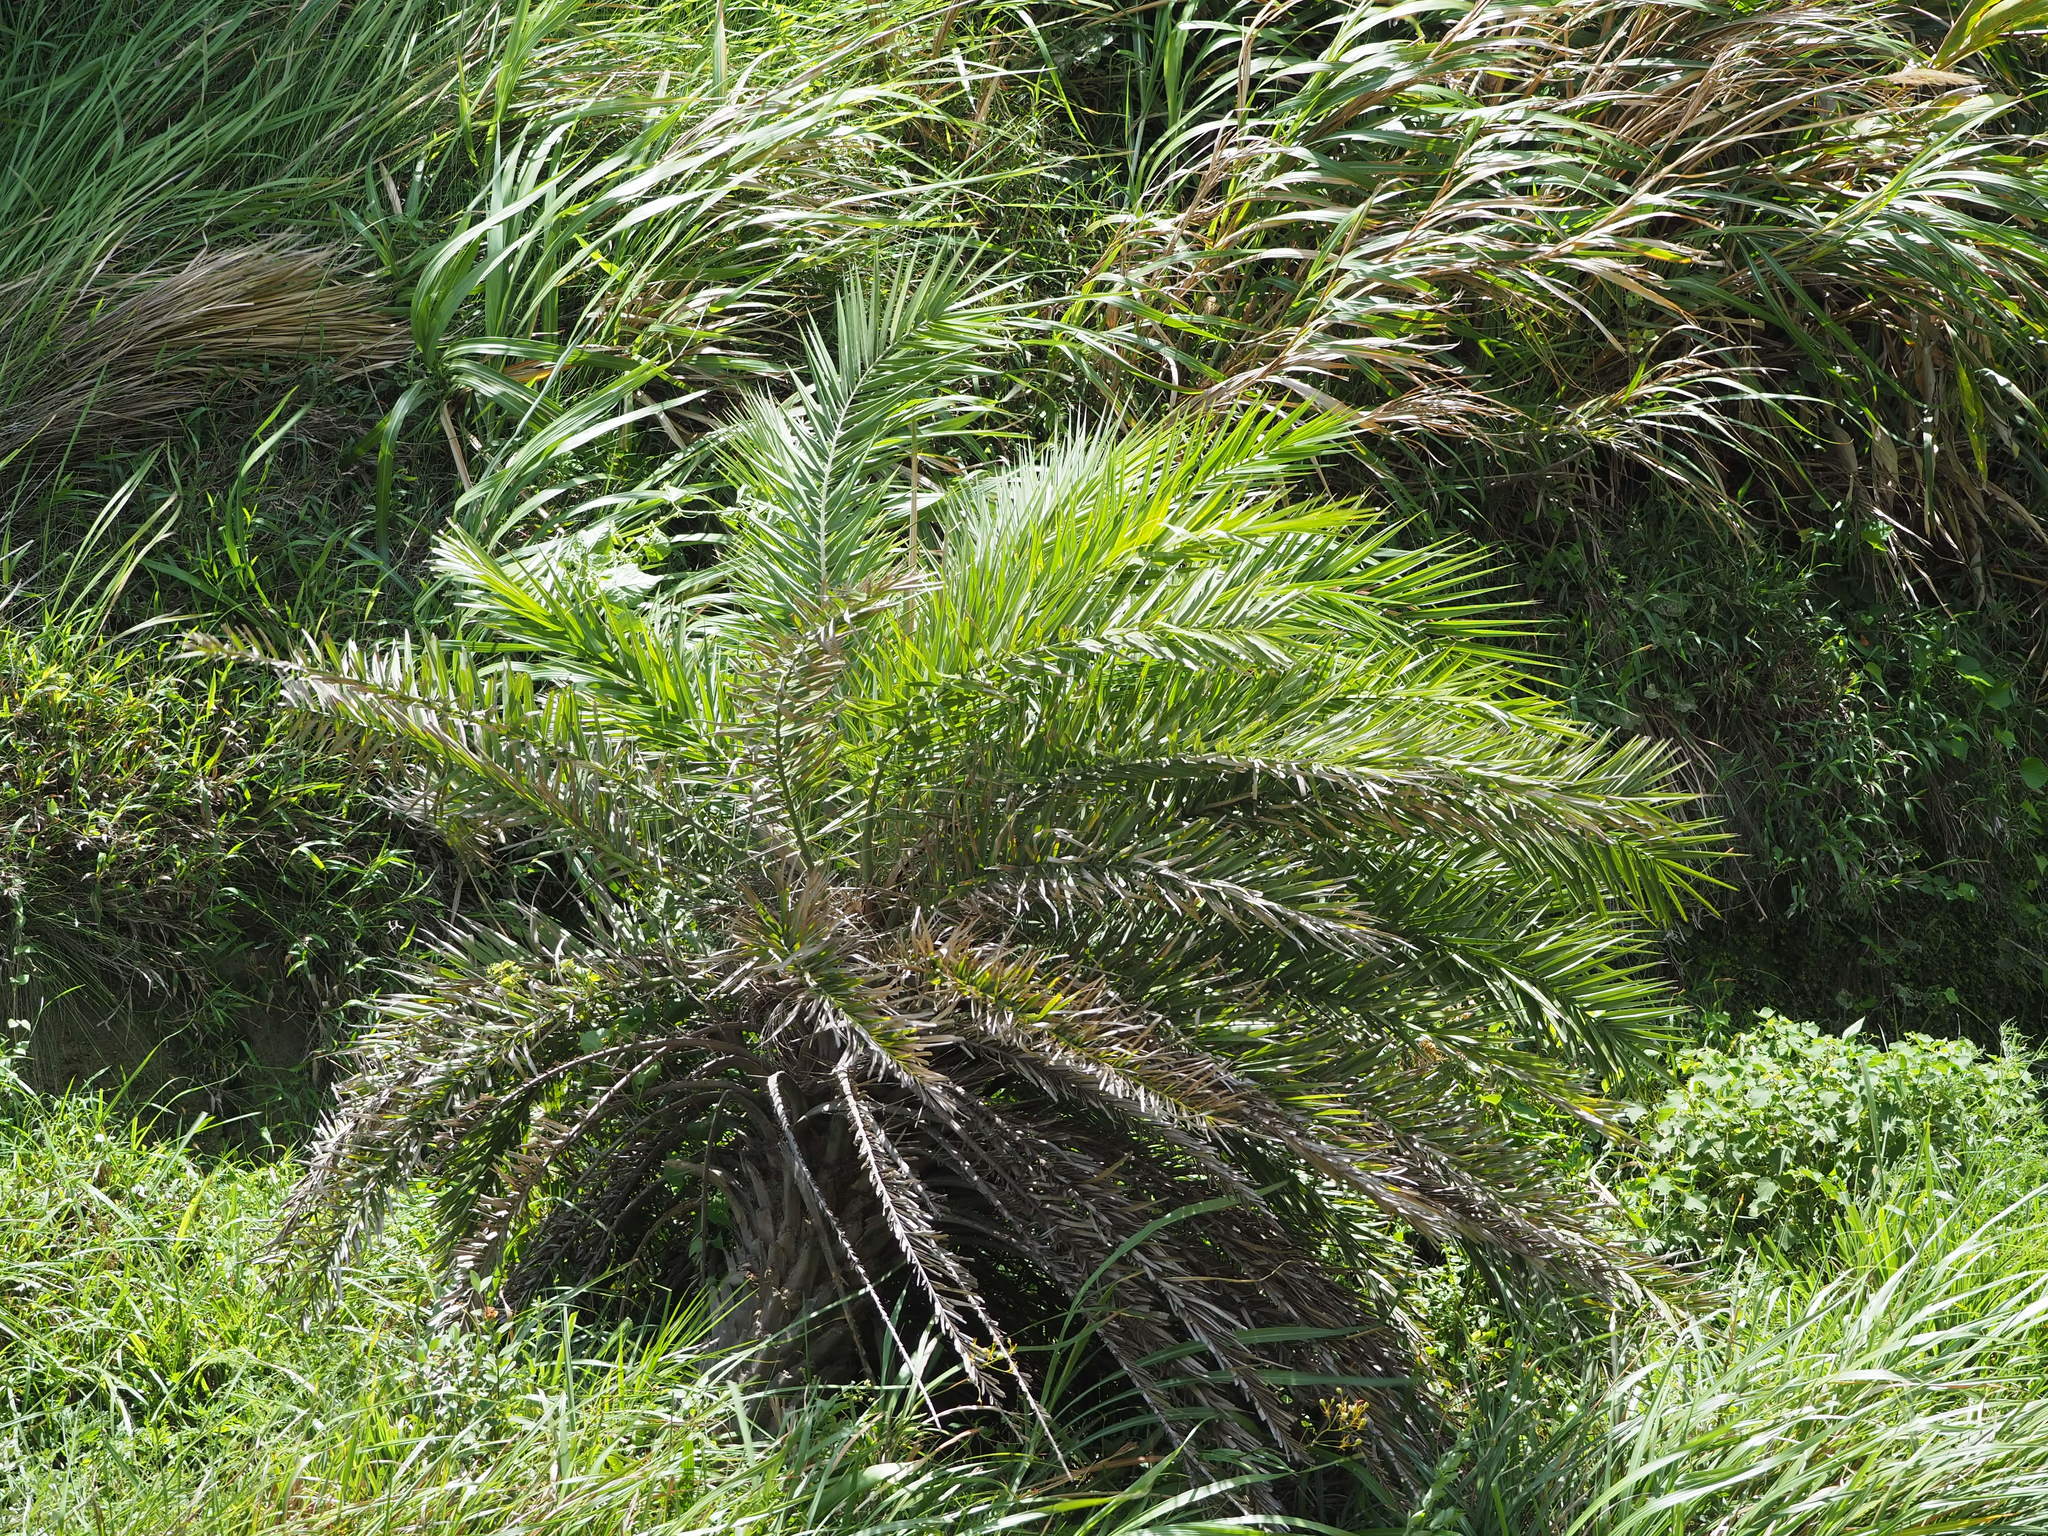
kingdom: Plantae
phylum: Tracheophyta
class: Liliopsida
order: Arecales
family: Arecaceae
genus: Phoenix
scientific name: Phoenix loureiroi
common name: Loureiro's palm
